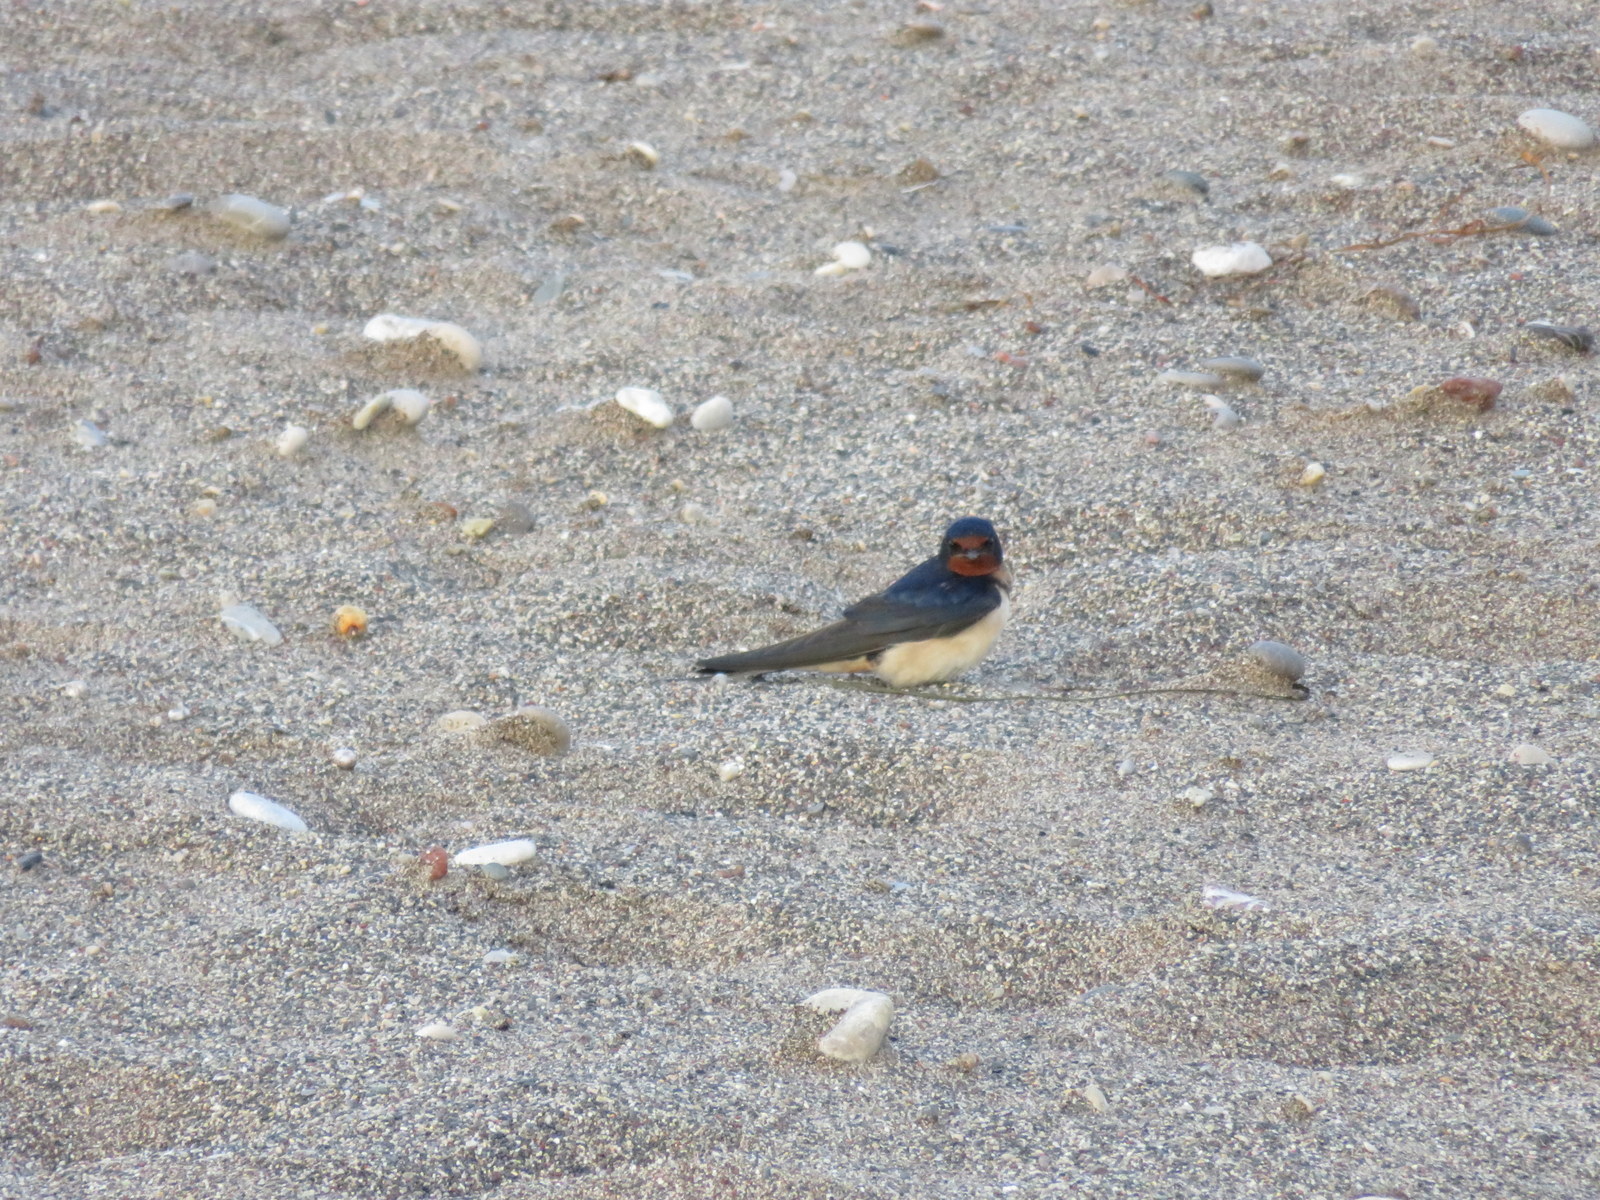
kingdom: Animalia
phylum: Chordata
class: Aves
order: Passeriformes
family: Hirundinidae
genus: Hirundo
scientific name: Hirundo rustica
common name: Barn swallow
